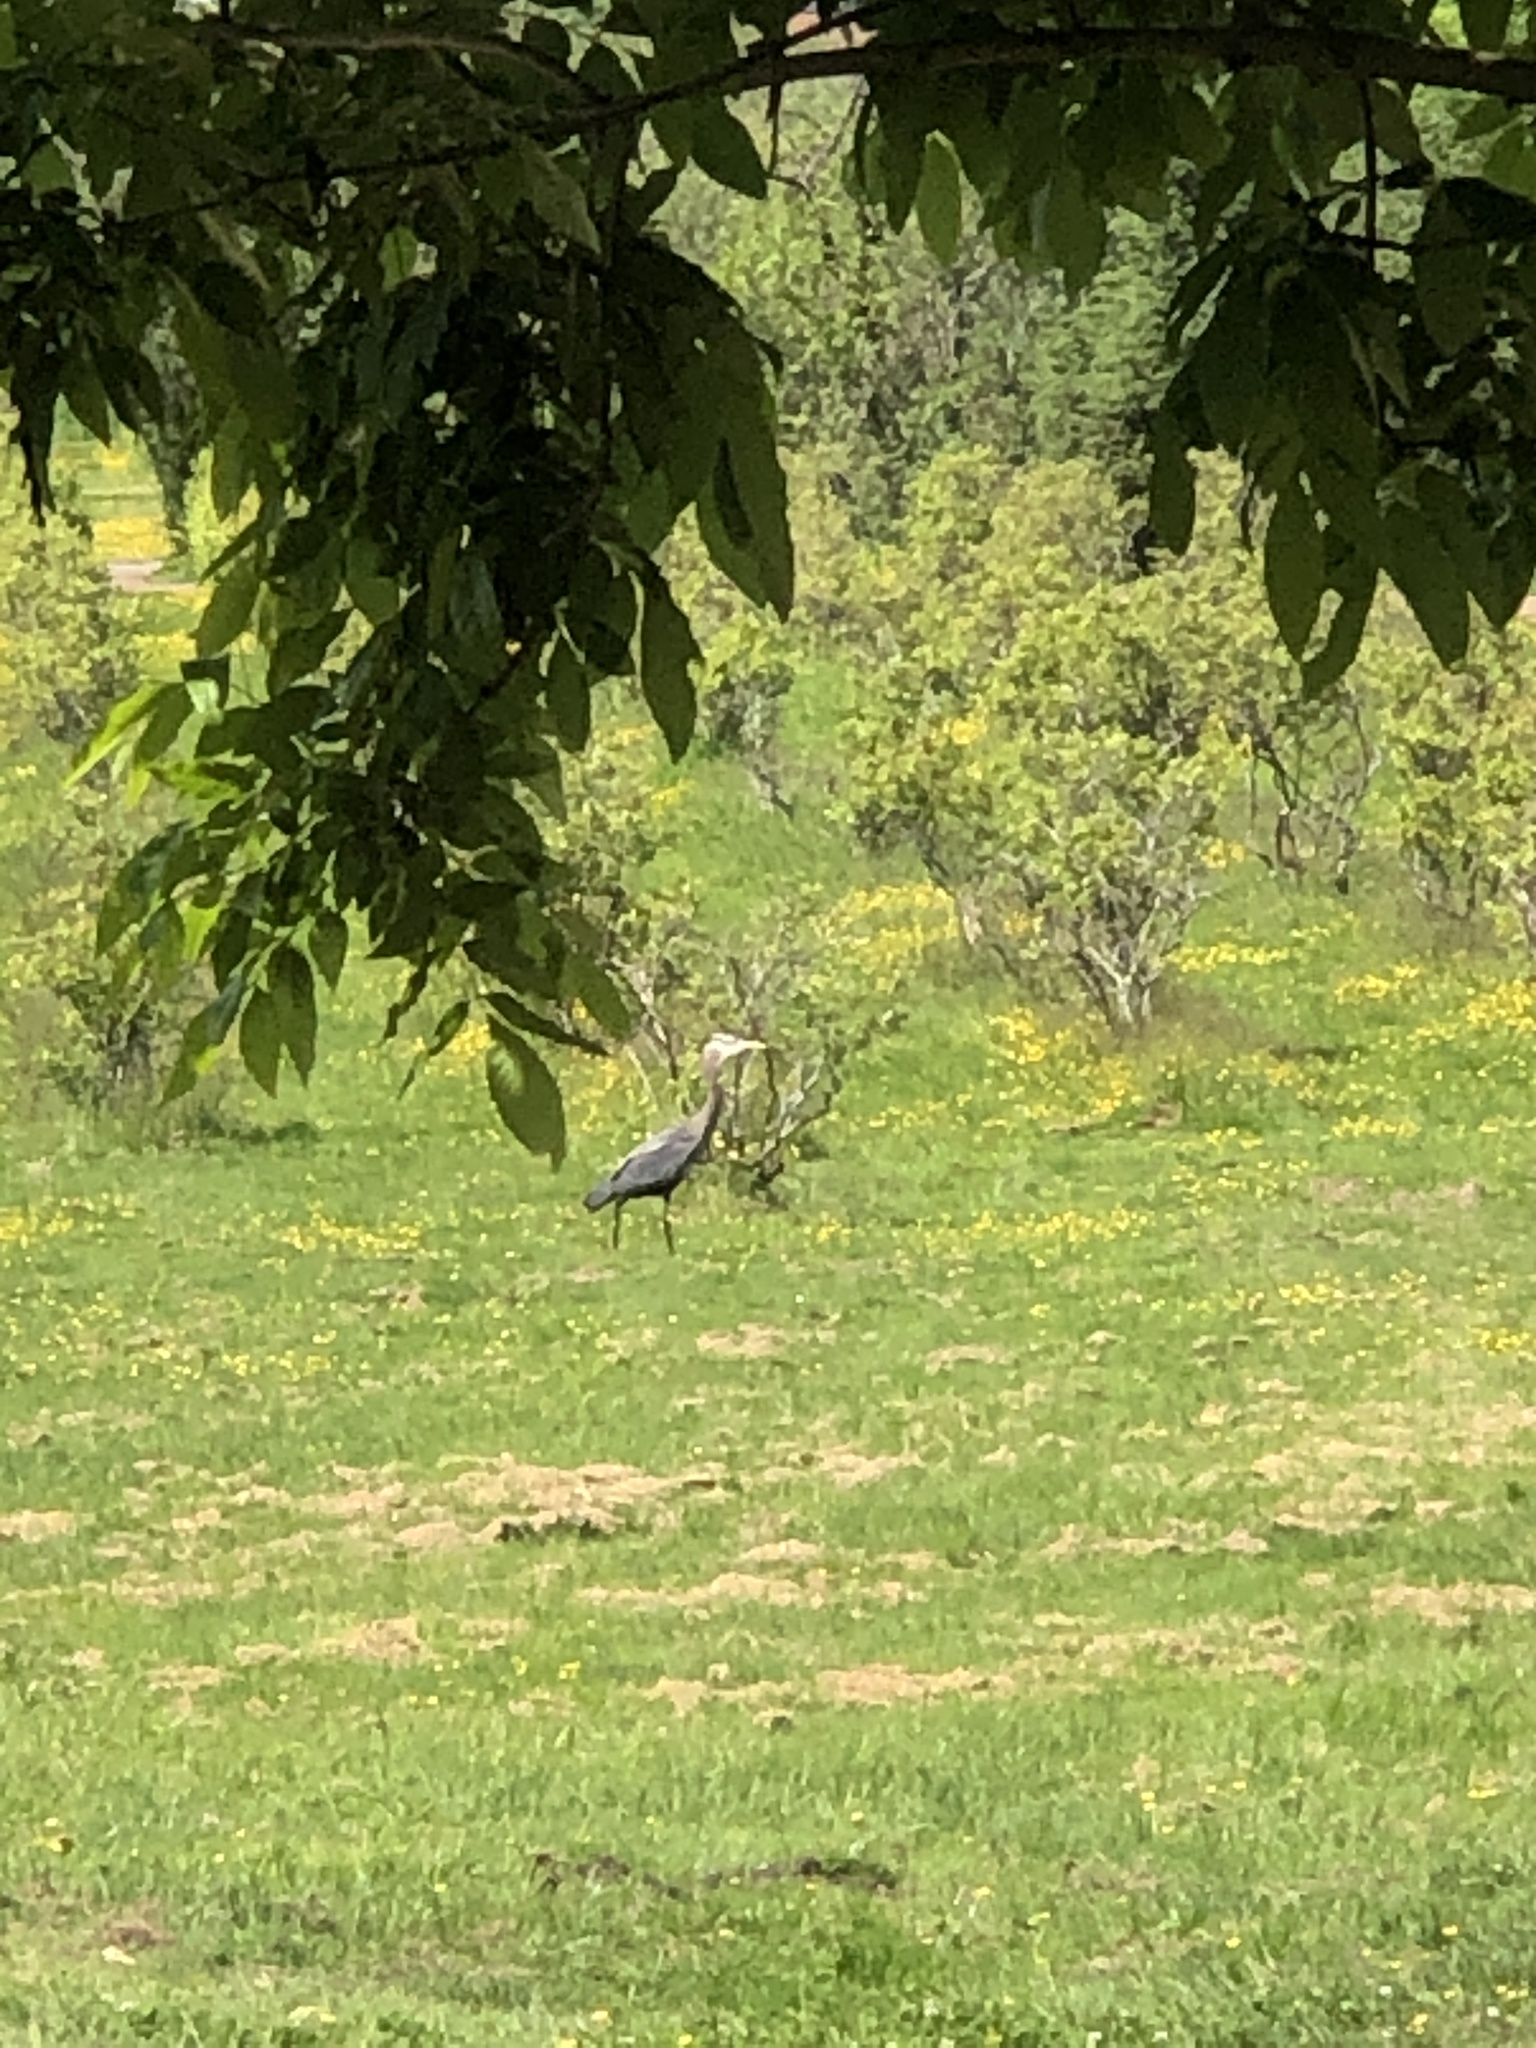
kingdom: Animalia
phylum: Chordata
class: Aves
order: Pelecaniformes
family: Ardeidae
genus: Ardea
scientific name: Ardea herodias
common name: Great blue heron
